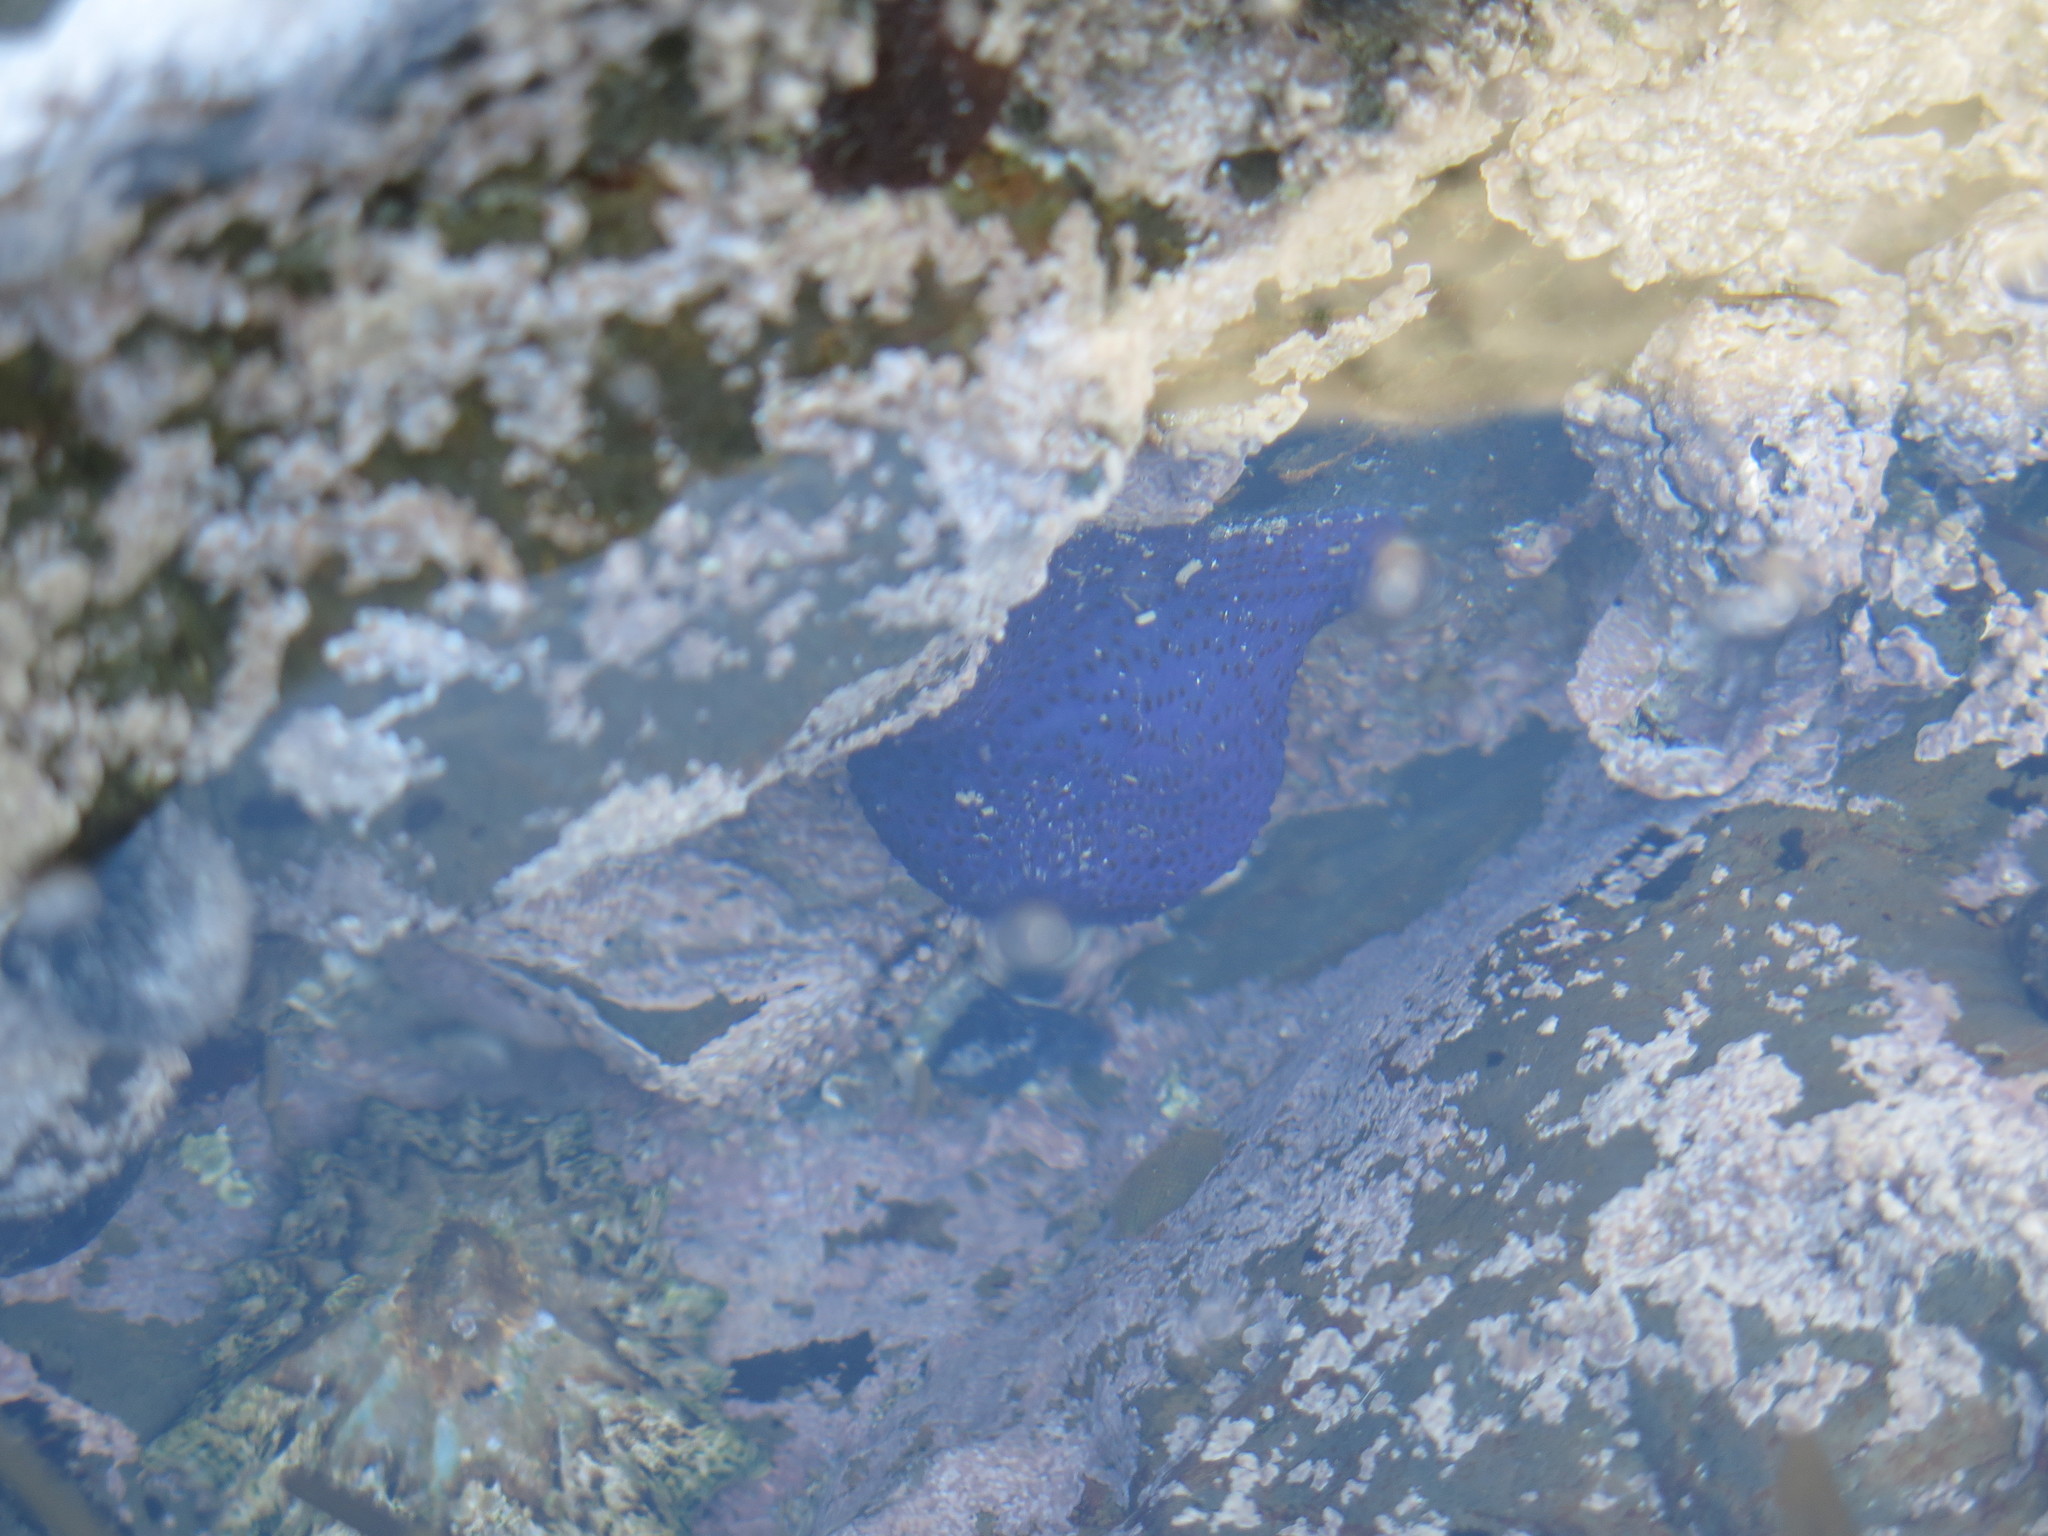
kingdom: Animalia
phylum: Cnidaria
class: Anthozoa
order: Actiniaria
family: Actiniidae
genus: Bunodosoma
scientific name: Bunodosoma capense
